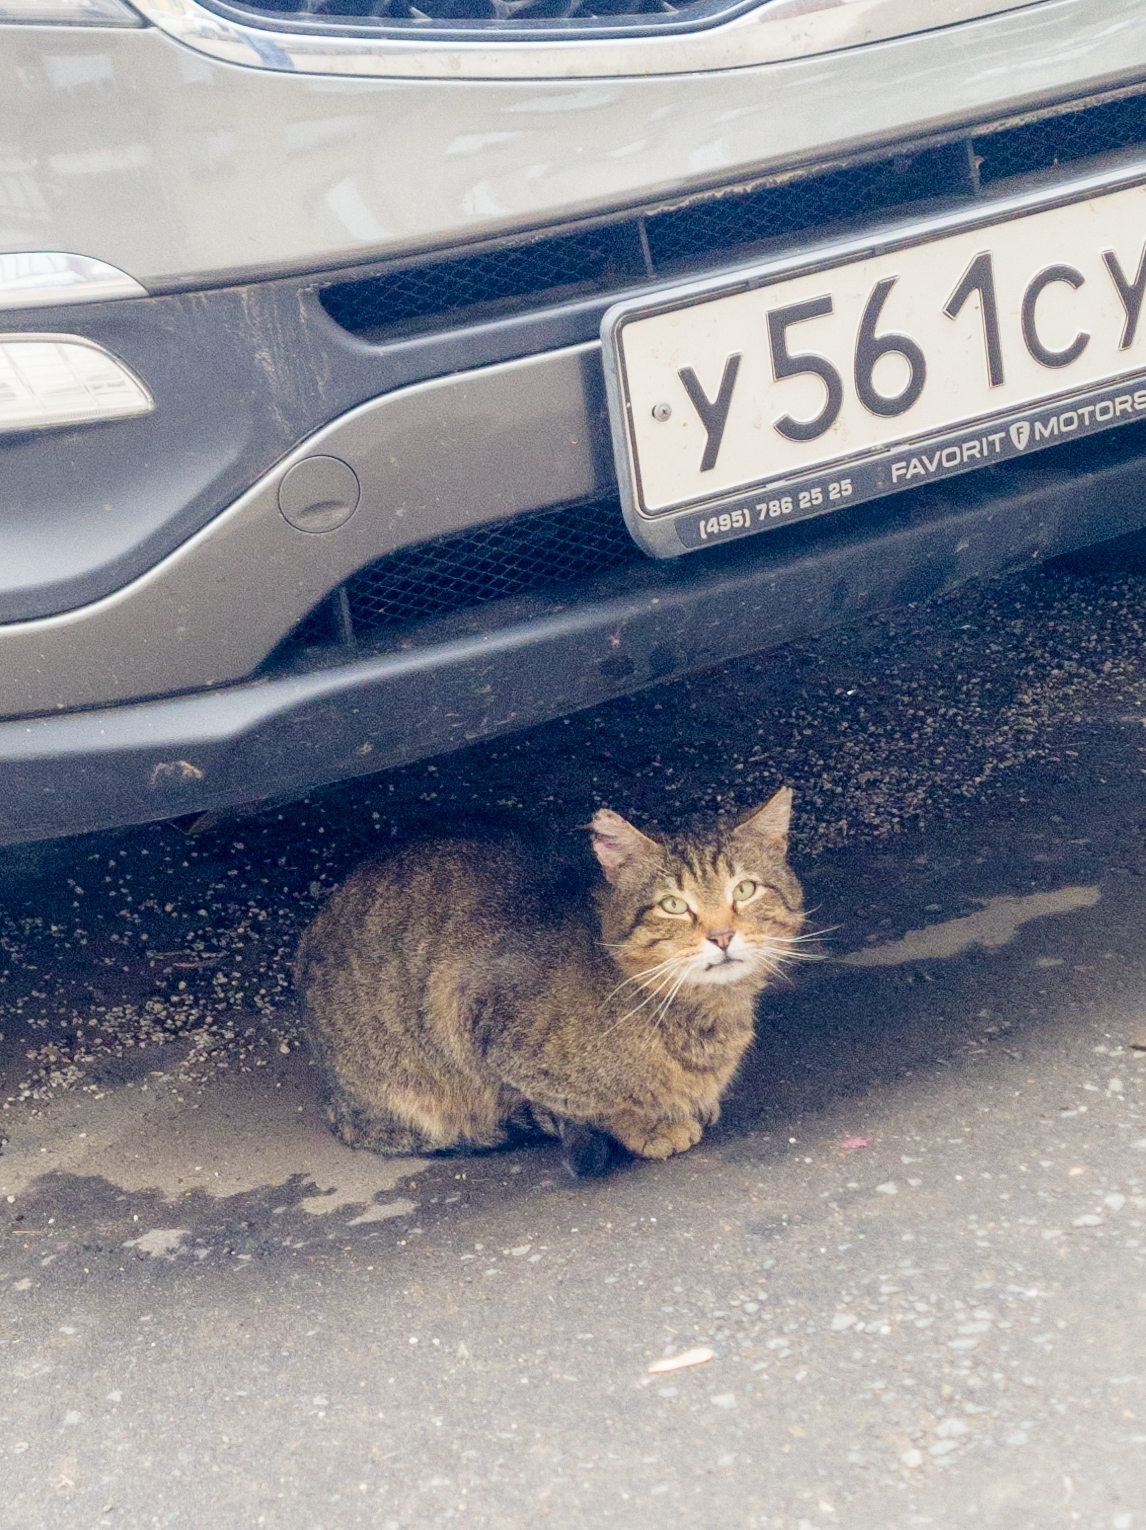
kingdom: Animalia
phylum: Chordata
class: Mammalia
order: Carnivora
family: Felidae
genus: Felis
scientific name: Felis catus
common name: Domestic cat
